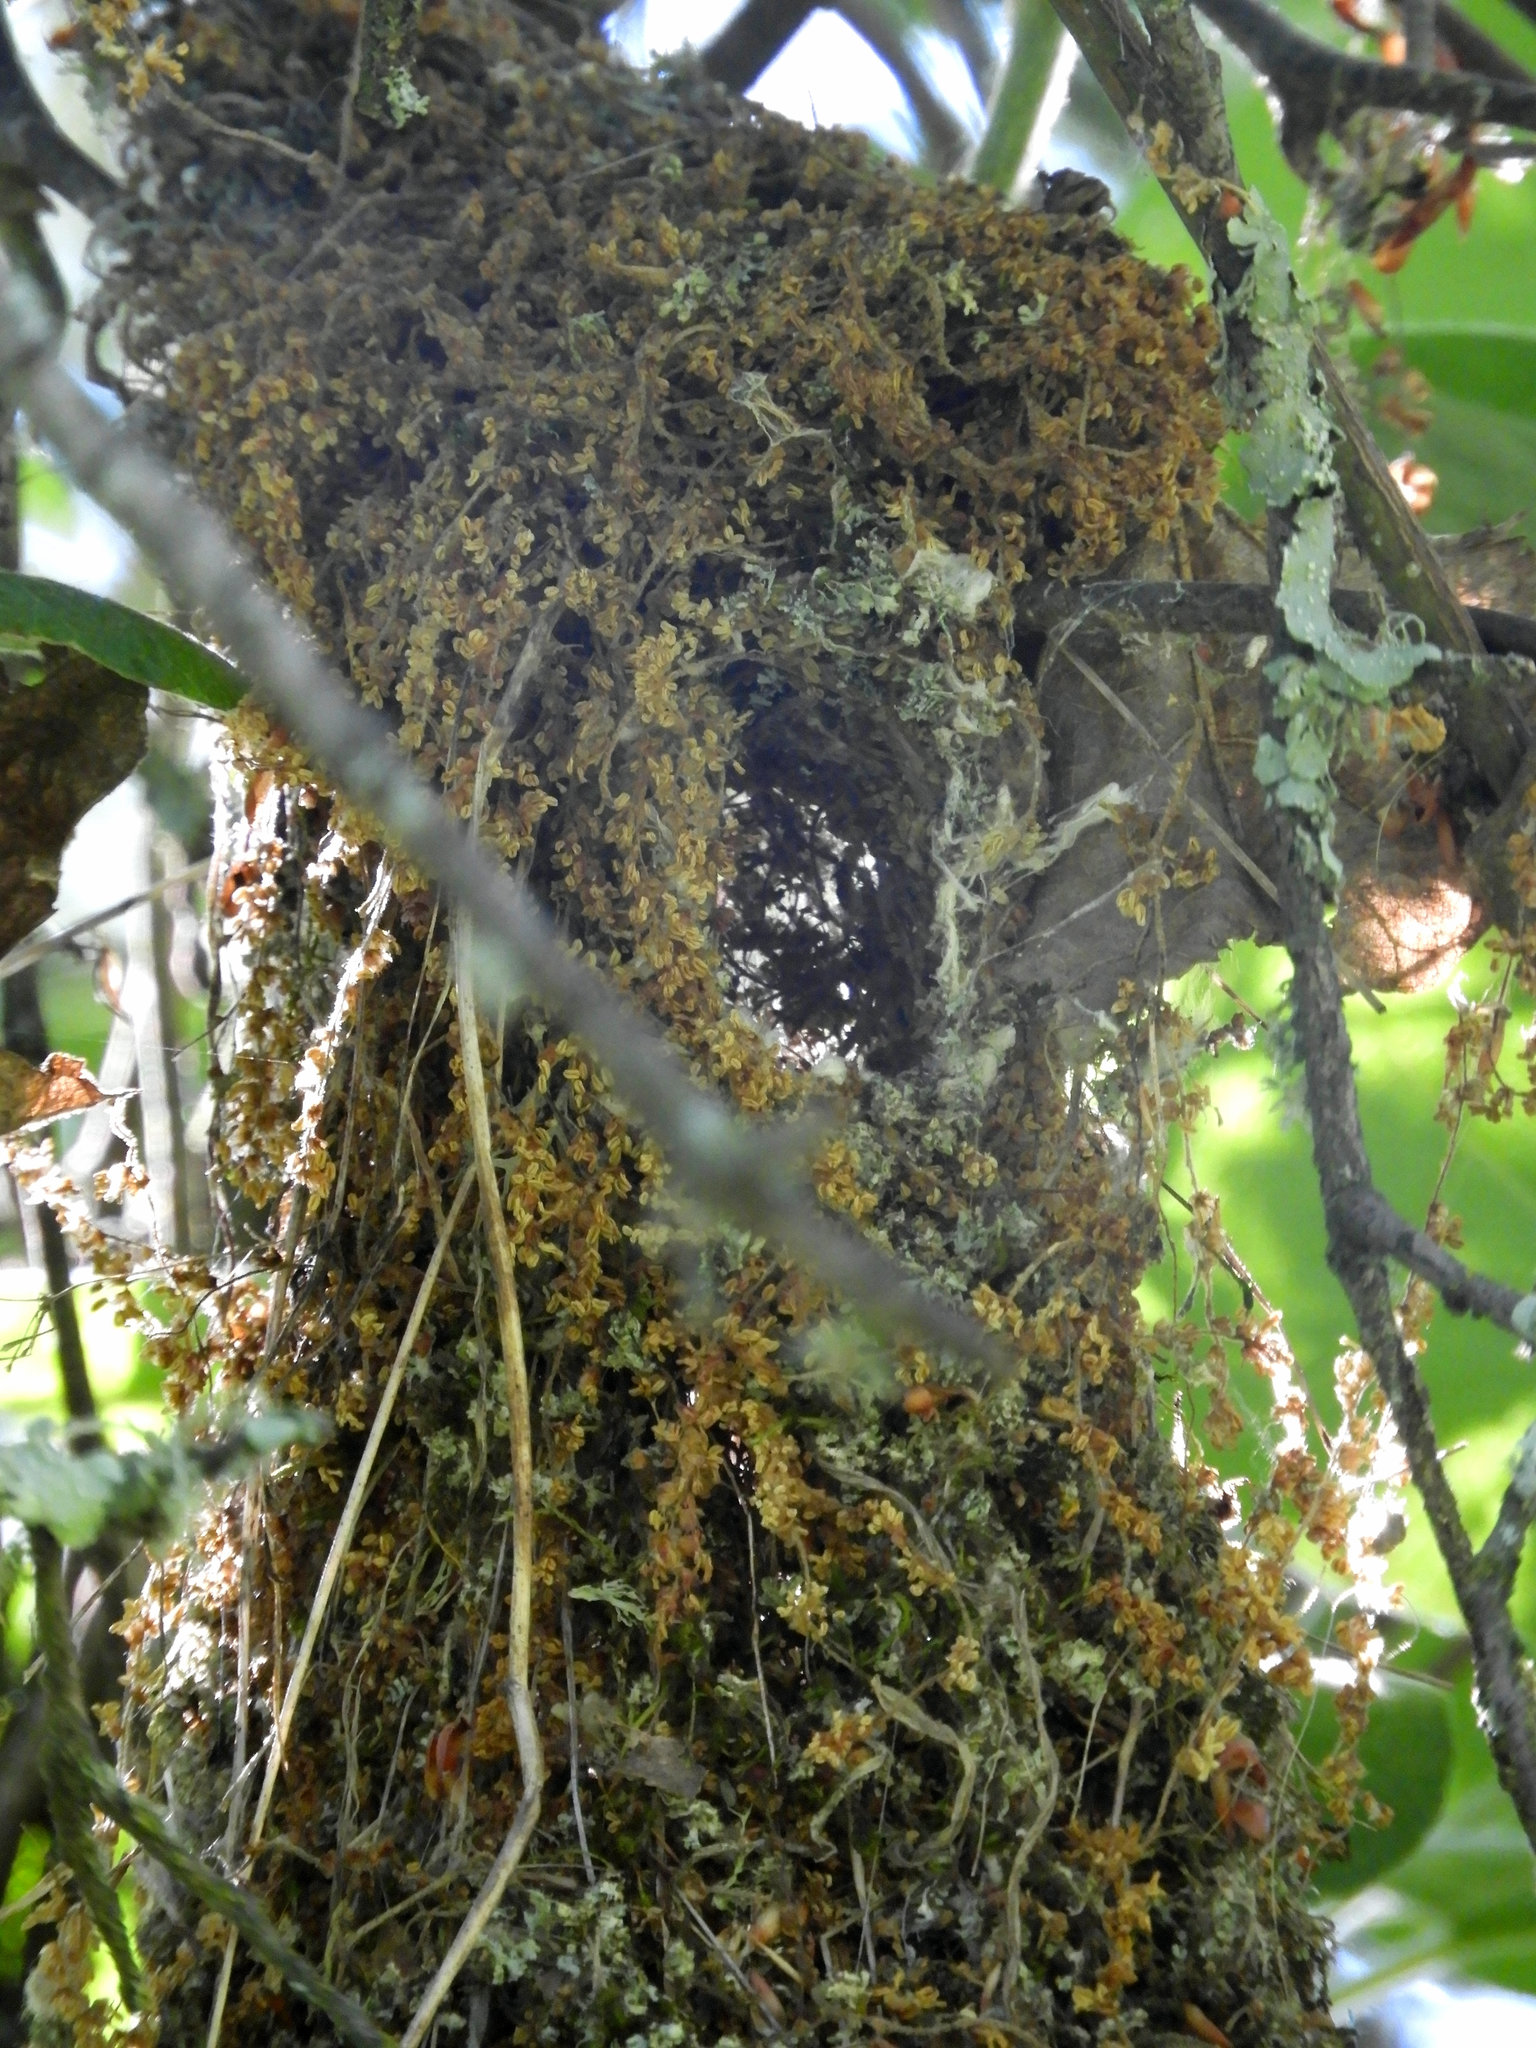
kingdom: Animalia
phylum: Chordata
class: Aves
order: Passeriformes
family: Aegithalidae
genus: Psaltriparus
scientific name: Psaltriparus minimus
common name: American bushtit
